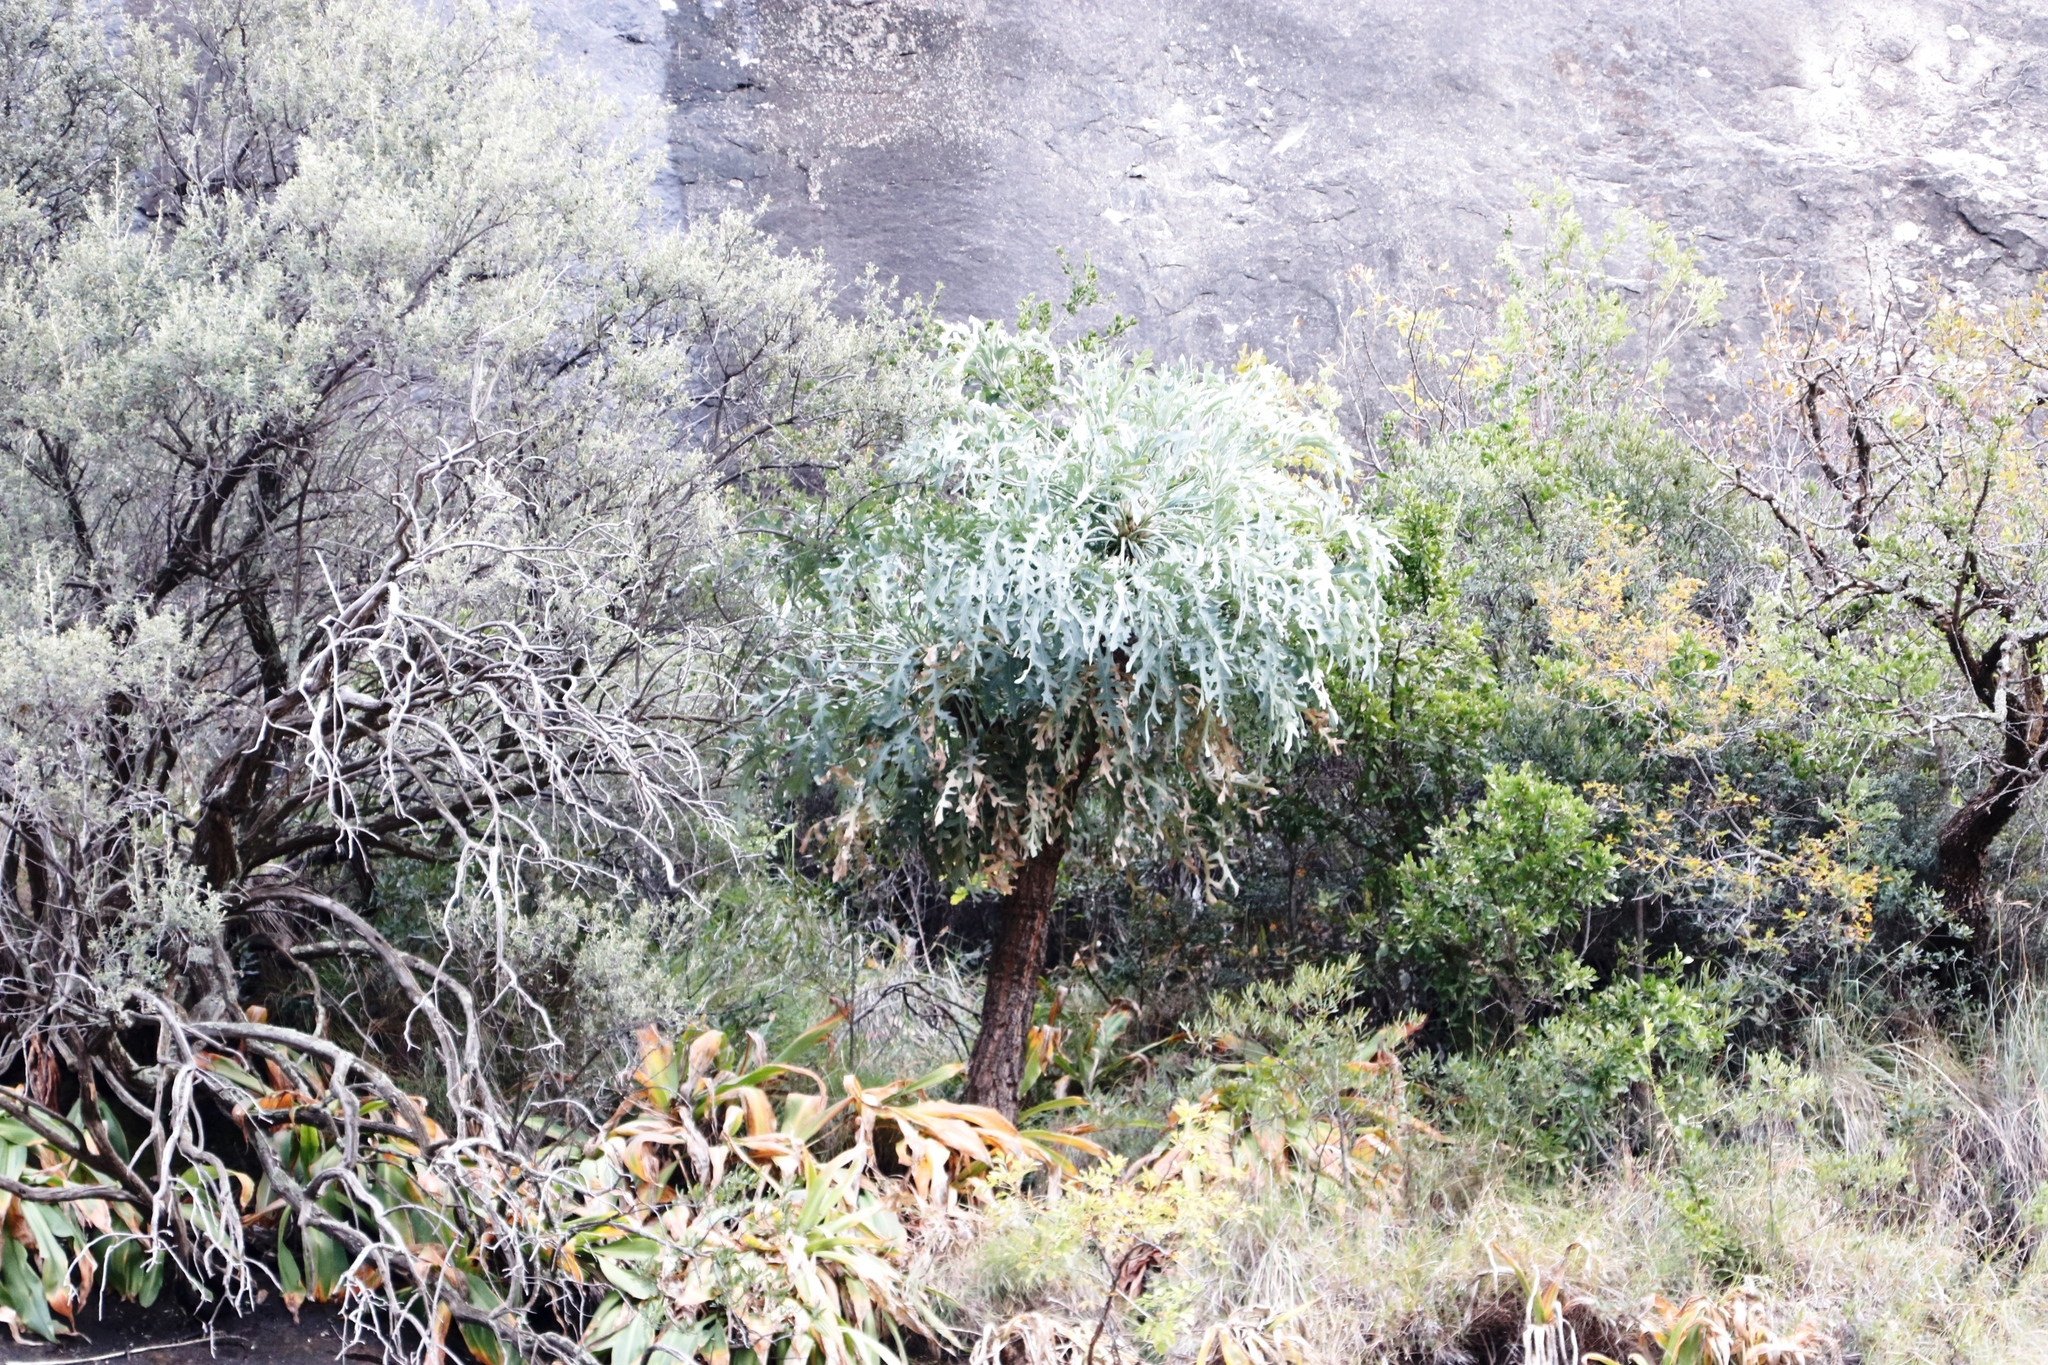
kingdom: Plantae
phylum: Tracheophyta
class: Magnoliopsida
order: Apiales
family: Araliaceae
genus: Cussonia
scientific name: Cussonia paniculata
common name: Cabbagetree
